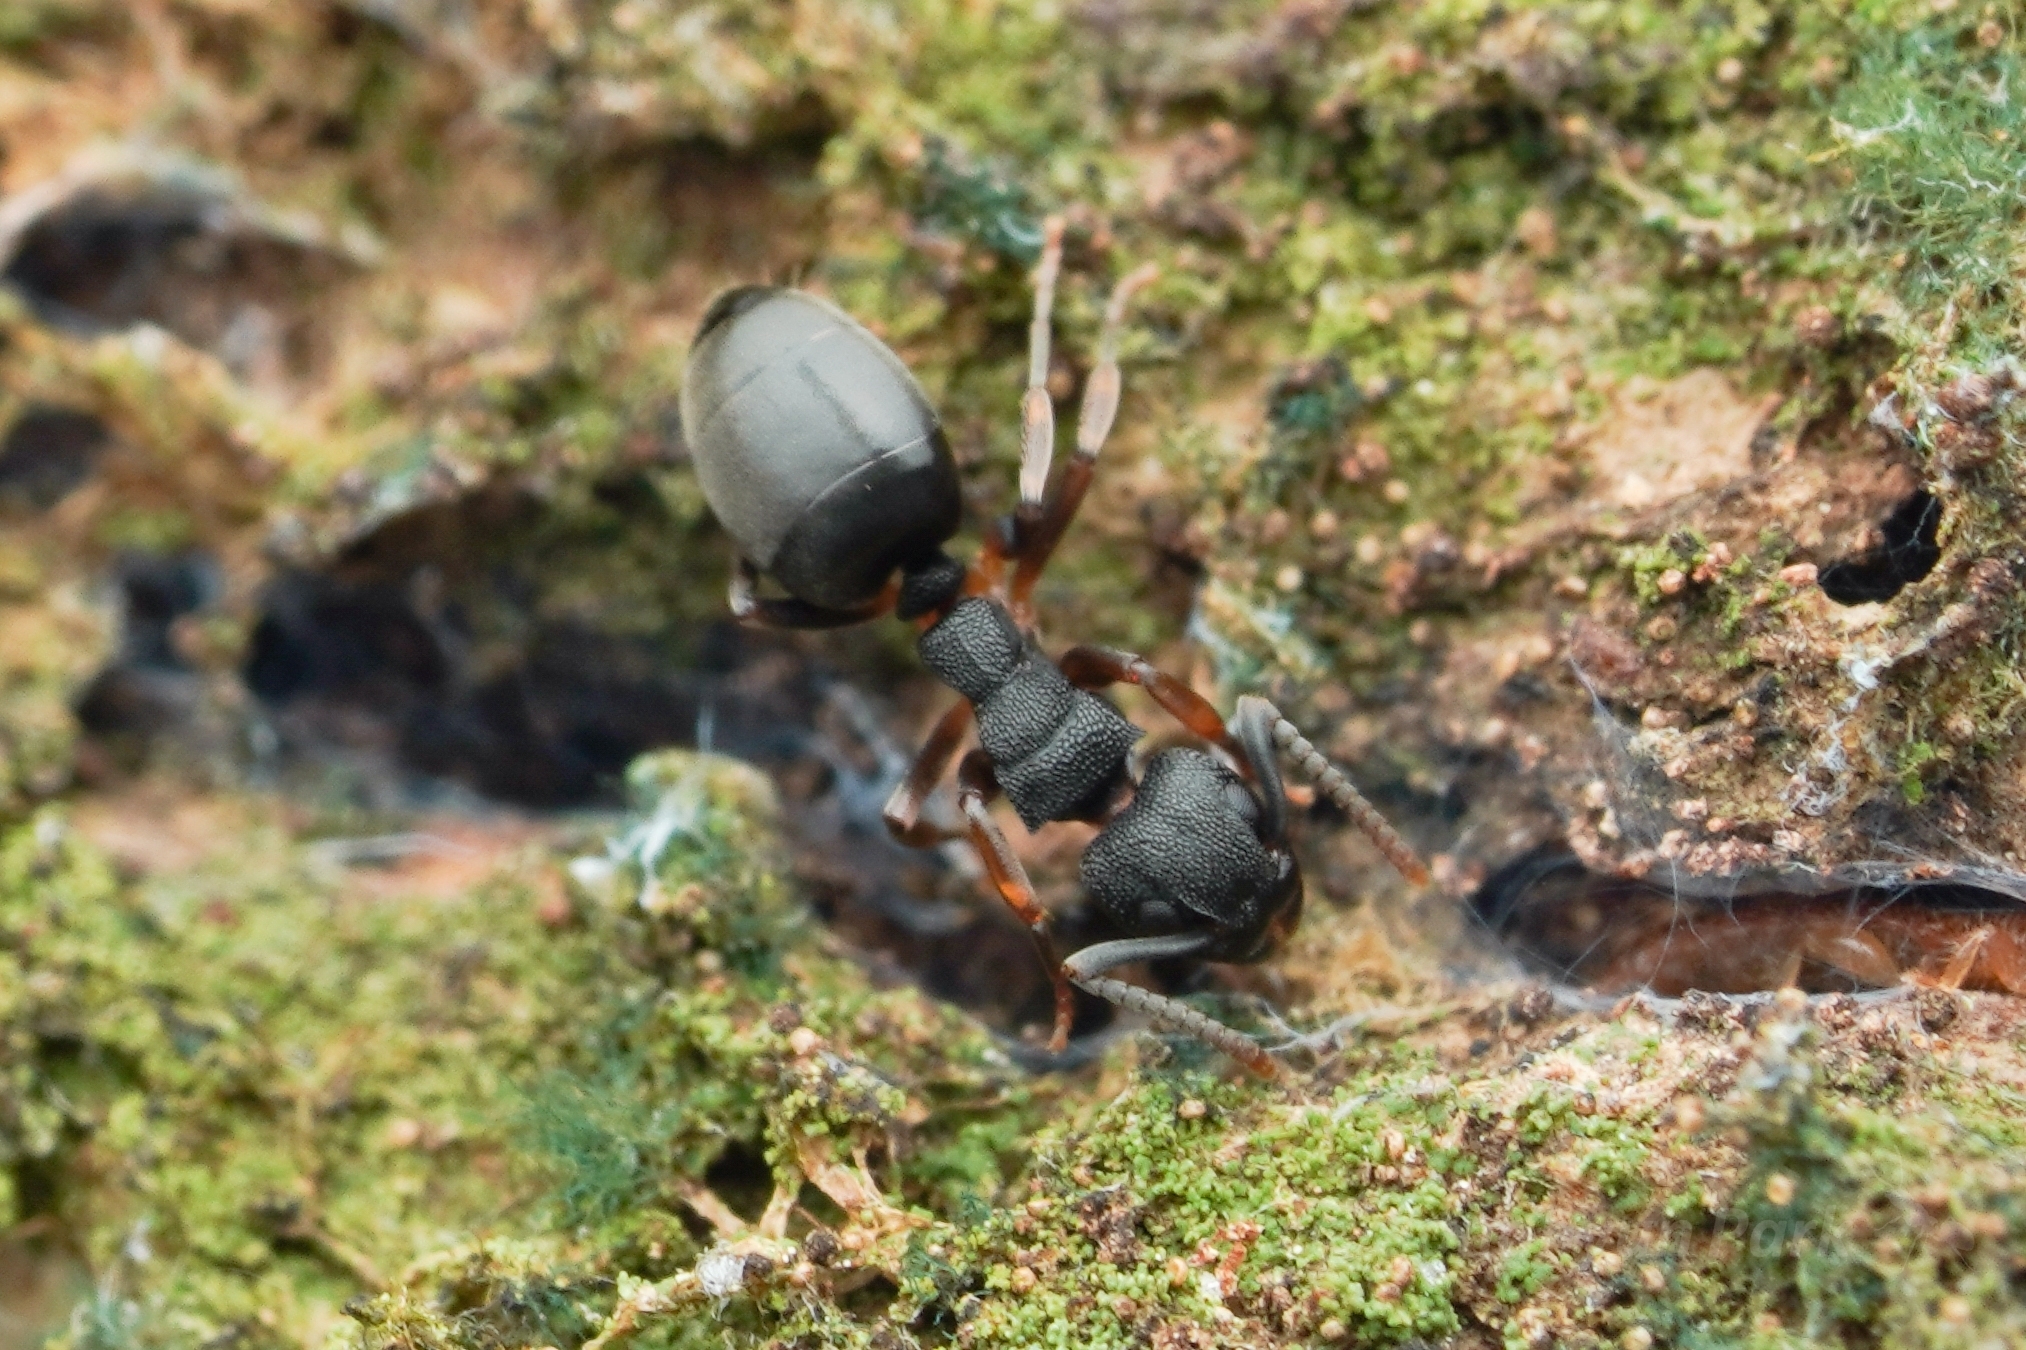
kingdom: Animalia
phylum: Arthropoda
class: Insecta
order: Hymenoptera
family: Formicidae
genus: Dolichoderus
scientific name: Dolichoderus lamellosus
